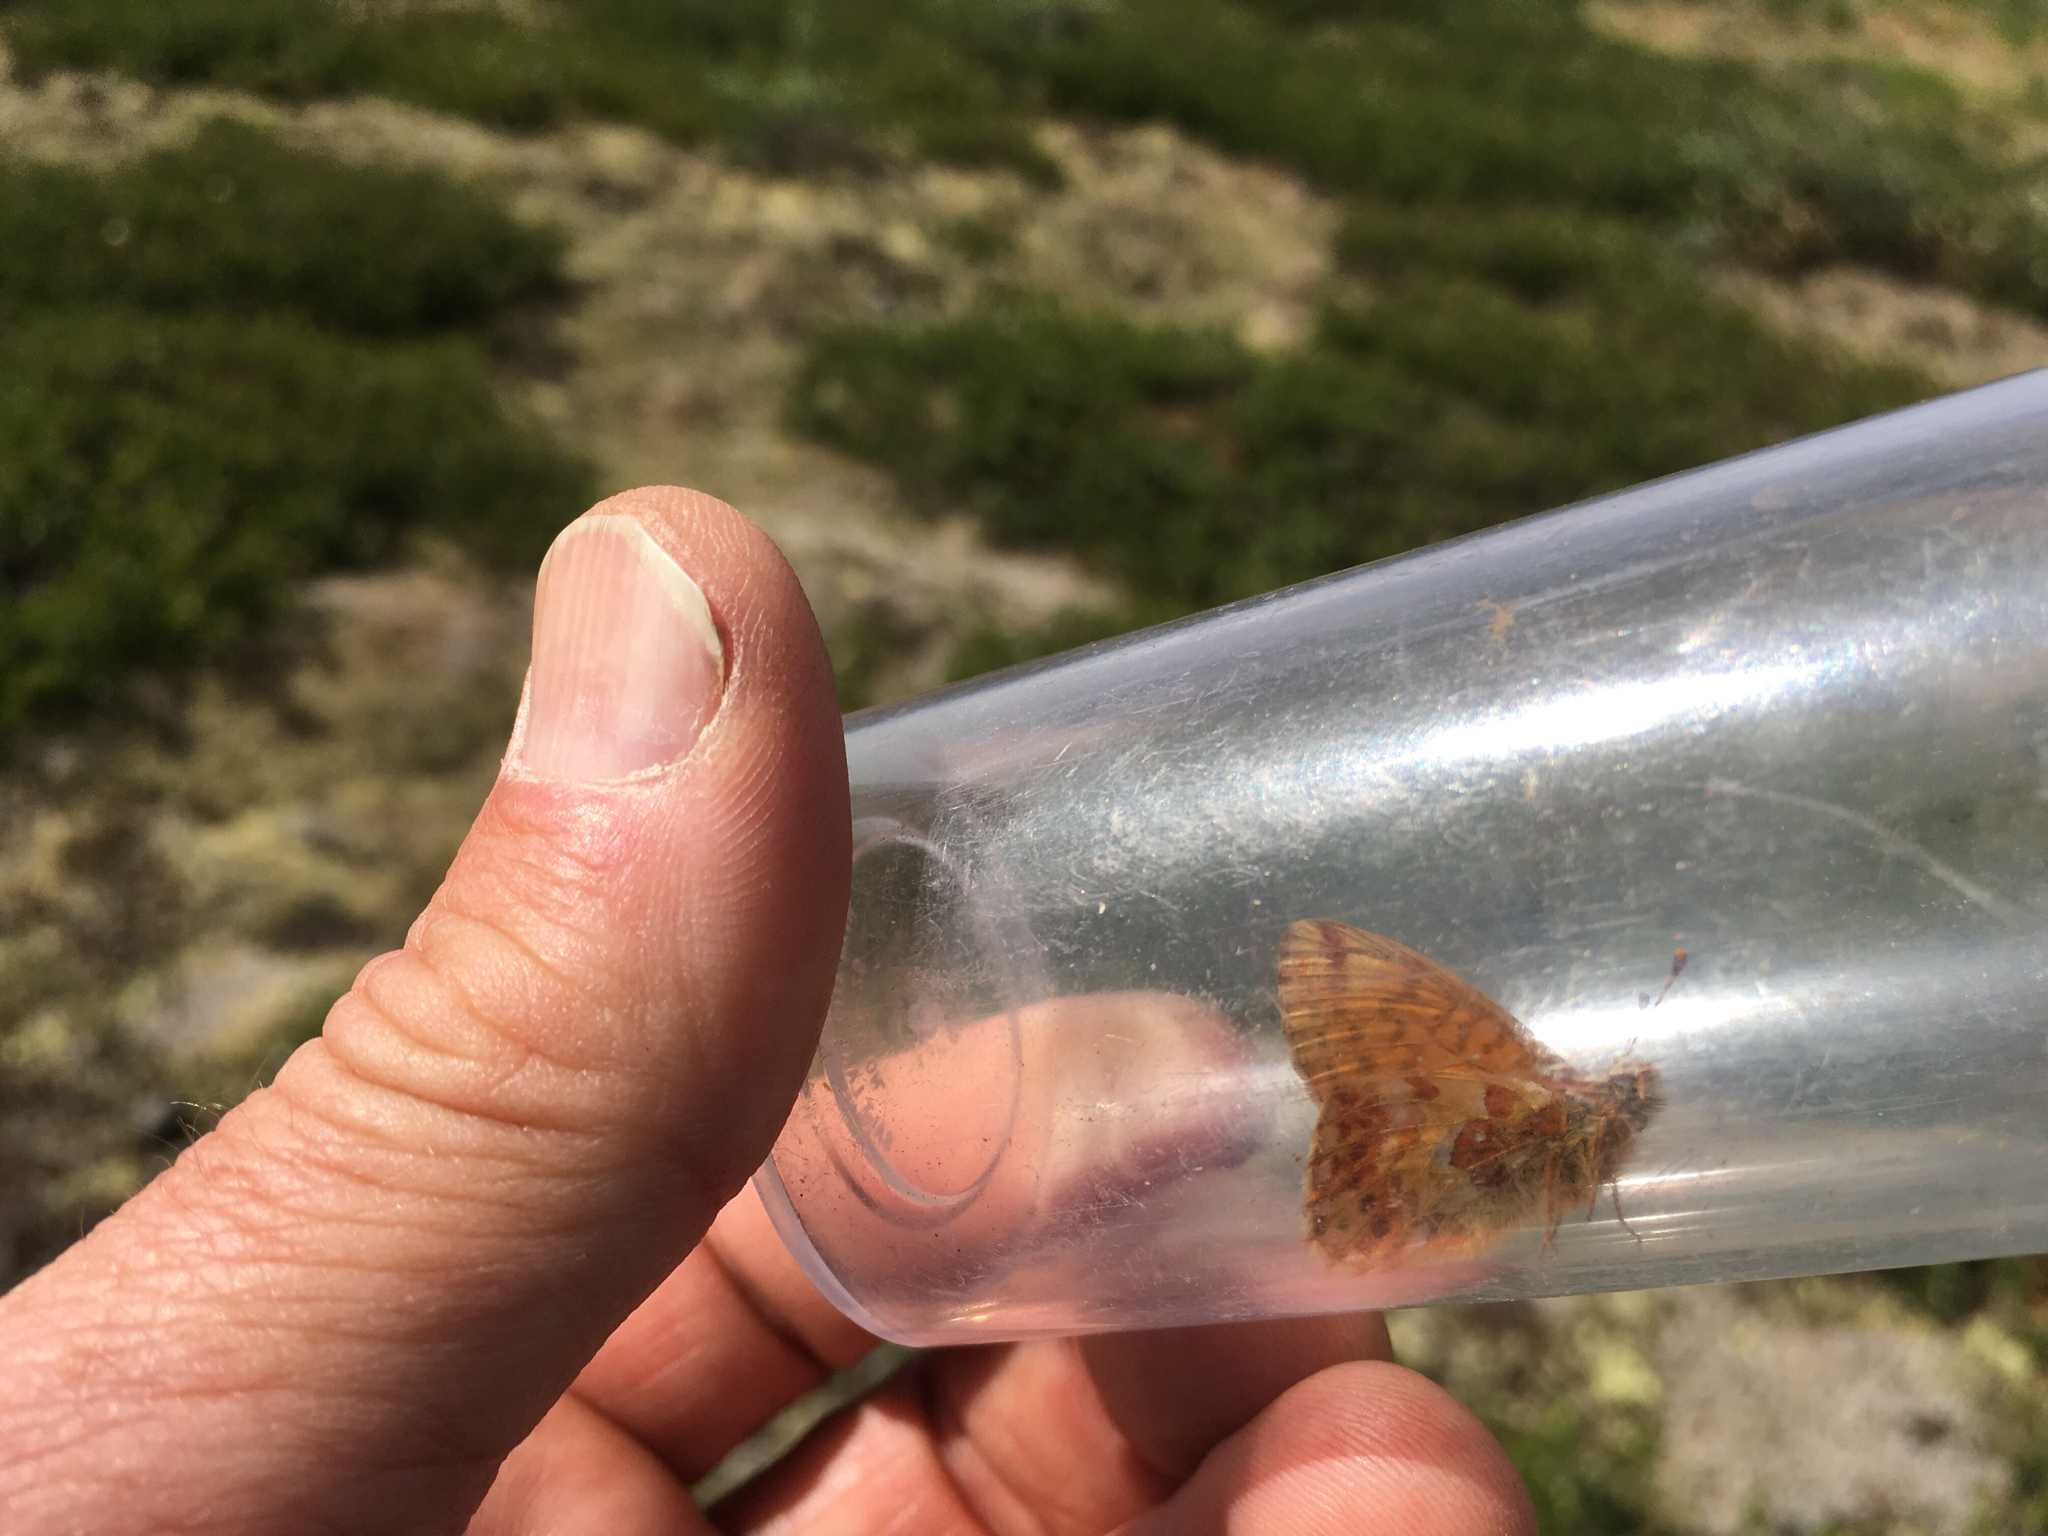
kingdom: Animalia
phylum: Arthropoda
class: Insecta
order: Lepidoptera
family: Nymphalidae
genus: Boloria
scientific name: Boloria alaskensis
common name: Alaskan fritillary
